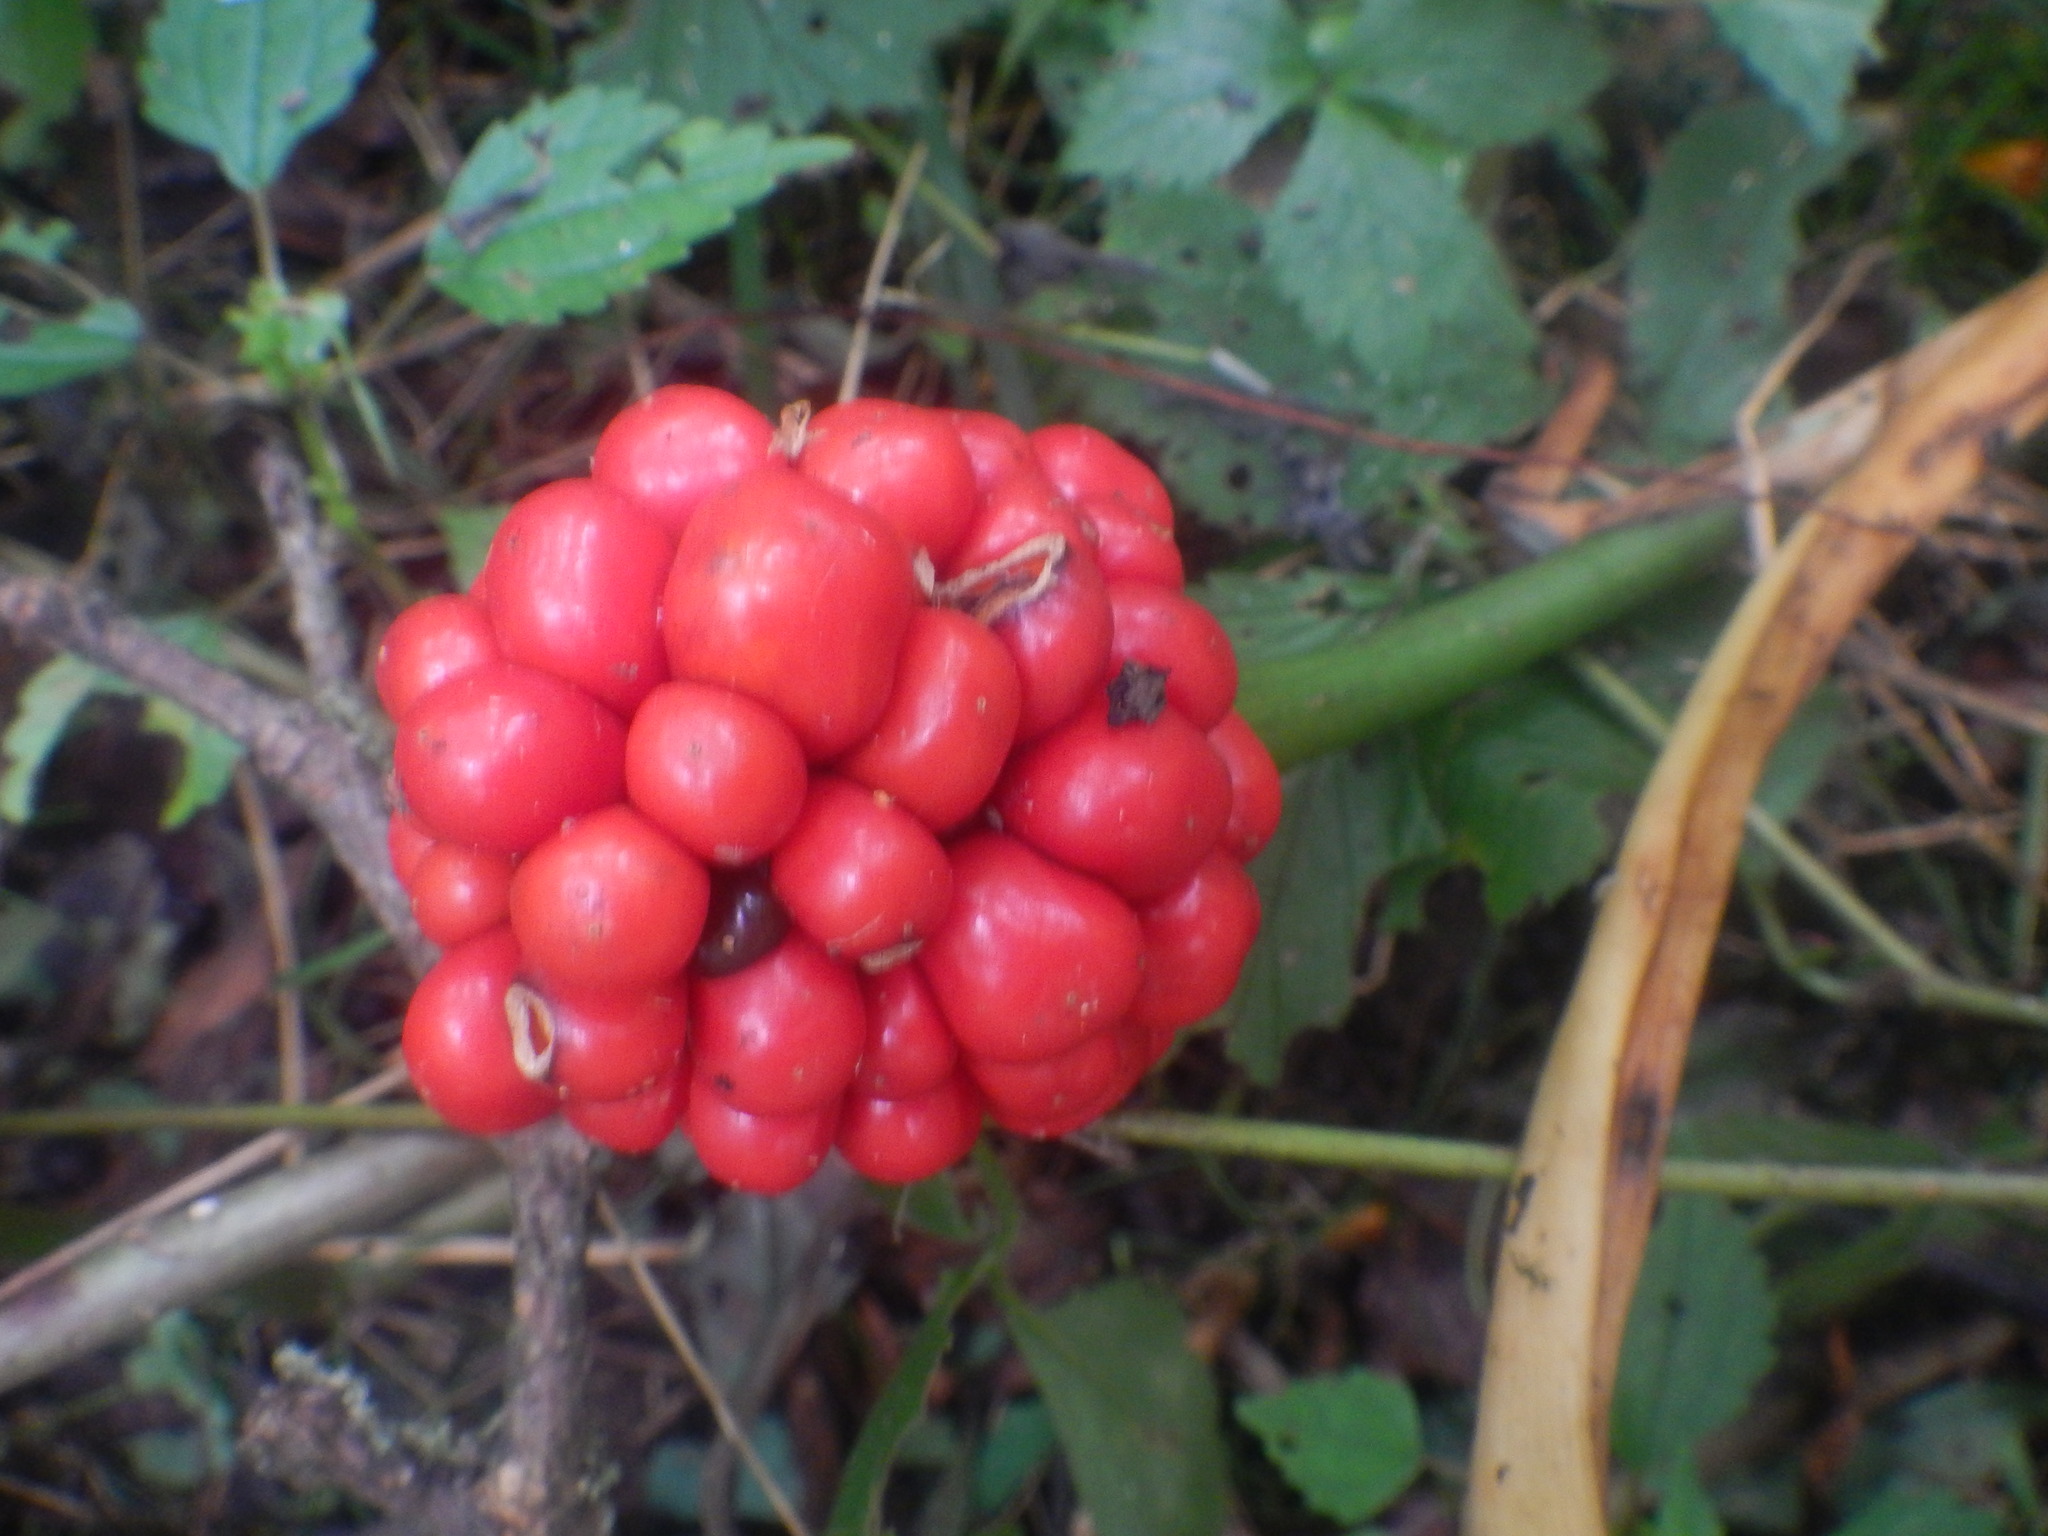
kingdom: Plantae
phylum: Tracheophyta
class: Liliopsida
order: Alismatales
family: Araceae
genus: Arisaema
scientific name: Arisaema triphyllum
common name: Jack-in-the-pulpit
